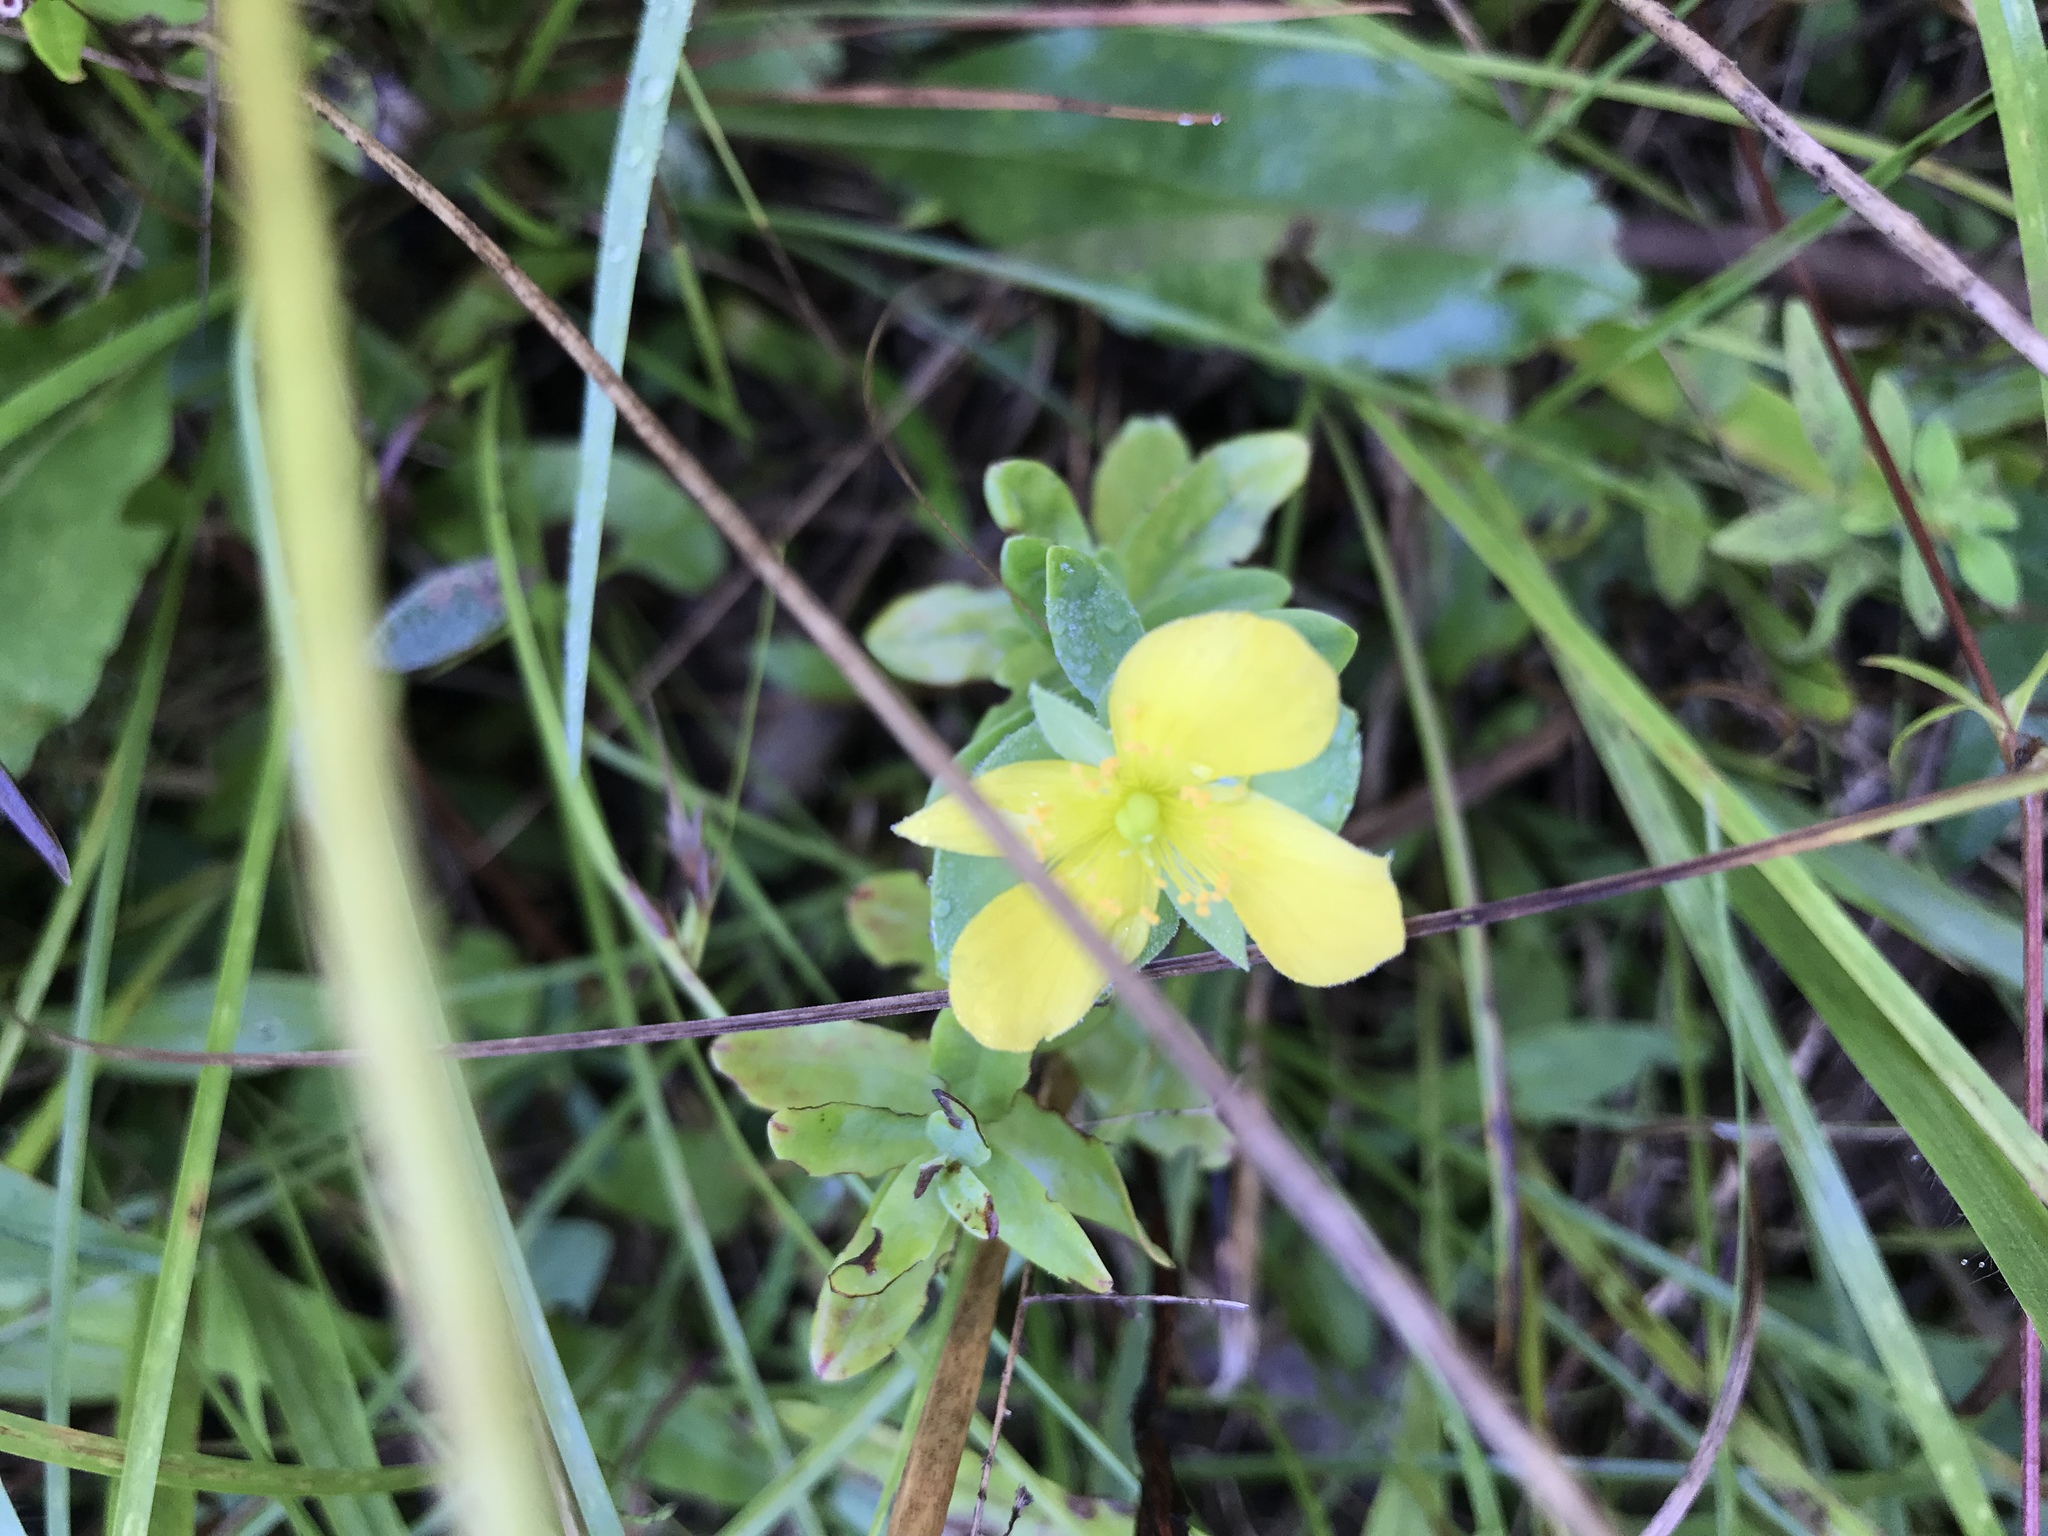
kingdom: Plantae
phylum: Tracheophyta
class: Magnoliopsida
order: Malpighiales
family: Hypericaceae
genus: Hypericum
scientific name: Hypericum crux-andreae
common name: St.-peter's-wort
